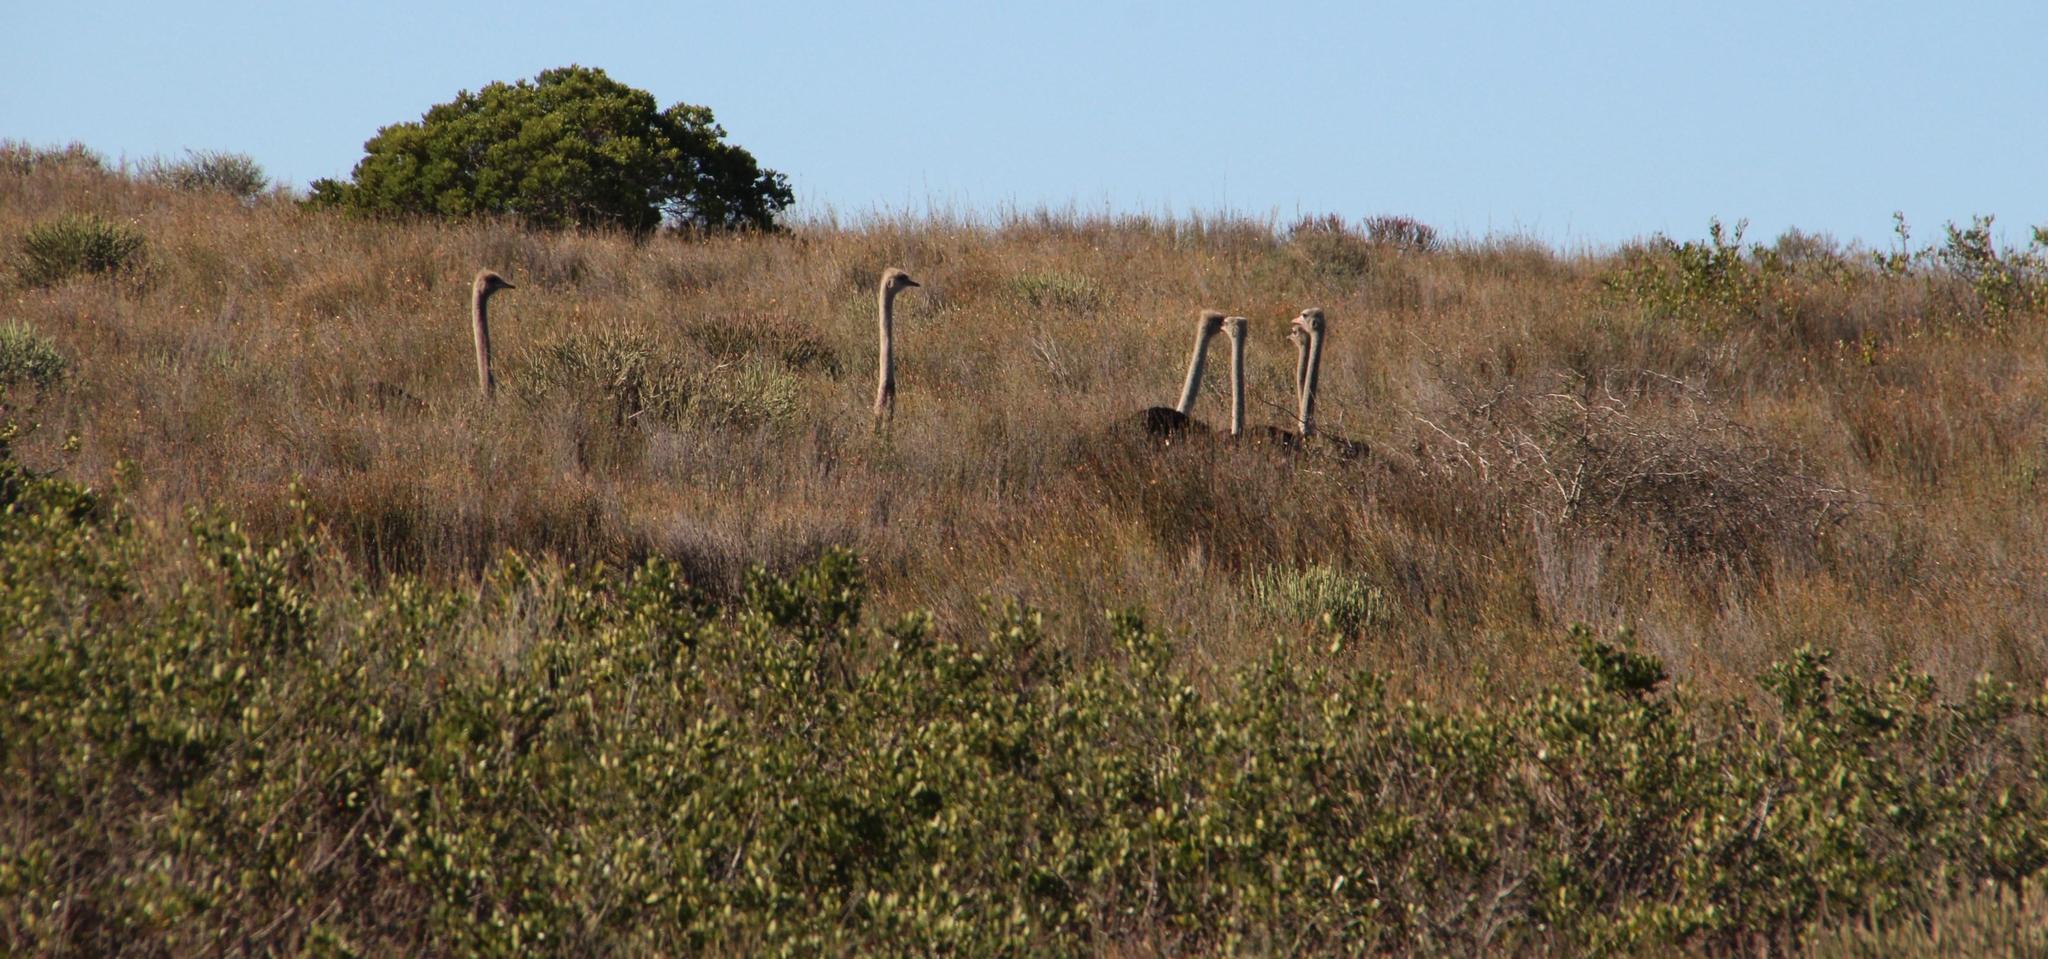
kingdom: Animalia
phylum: Chordata
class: Aves
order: Struthioniformes
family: Struthionidae
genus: Struthio
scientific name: Struthio camelus
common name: Common ostrich
